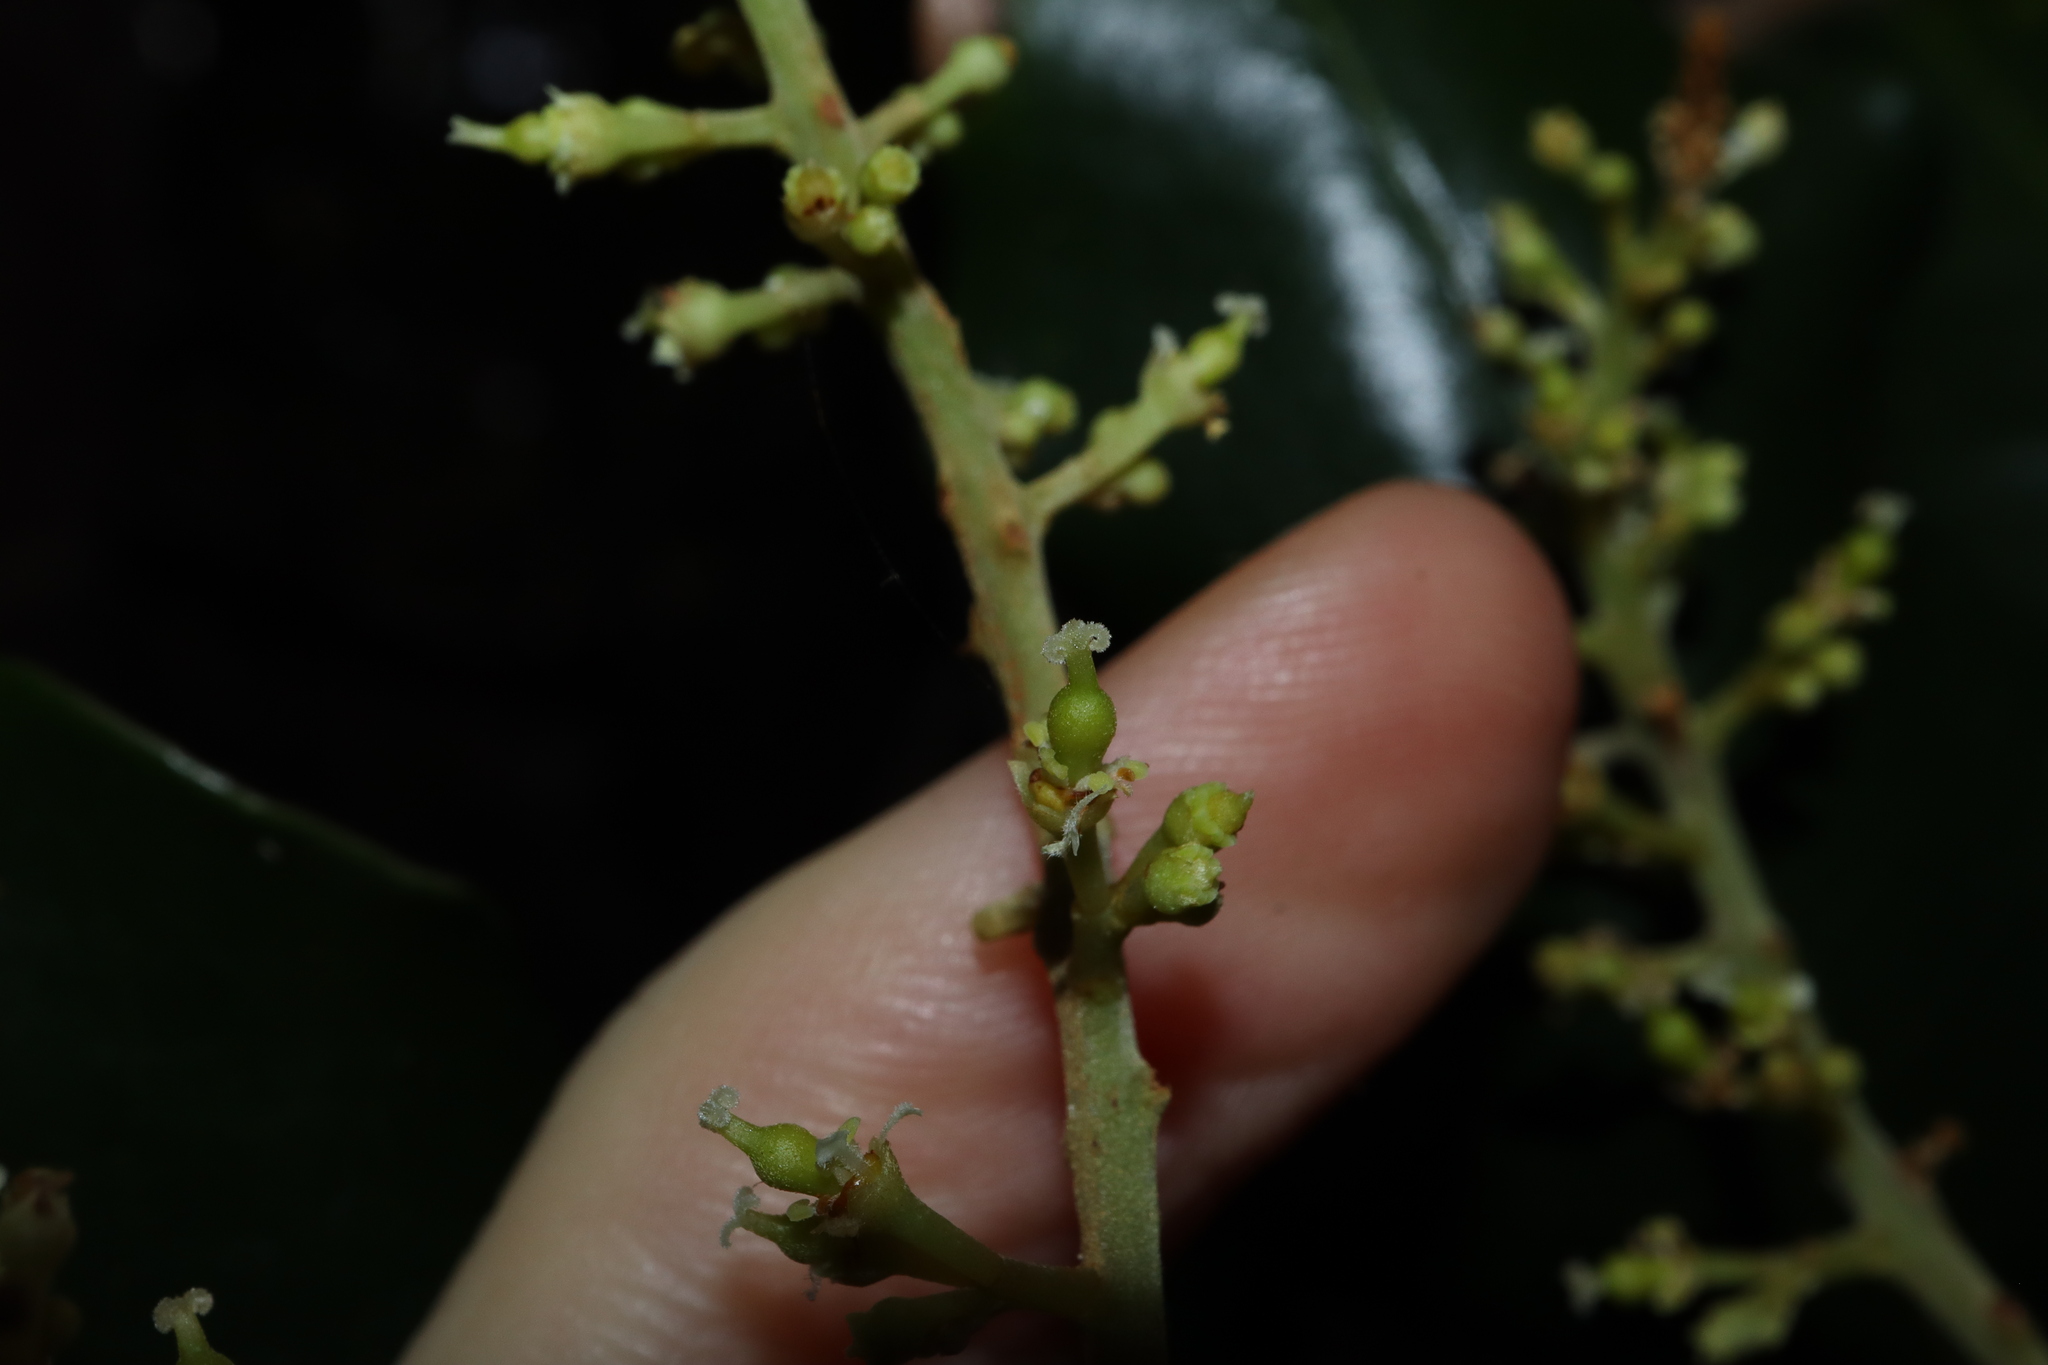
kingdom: Plantae
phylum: Tracheophyta
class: Magnoliopsida
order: Sapindales
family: Sapindaceae
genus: Mischocarpus
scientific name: Mischocarpus pyriformis
